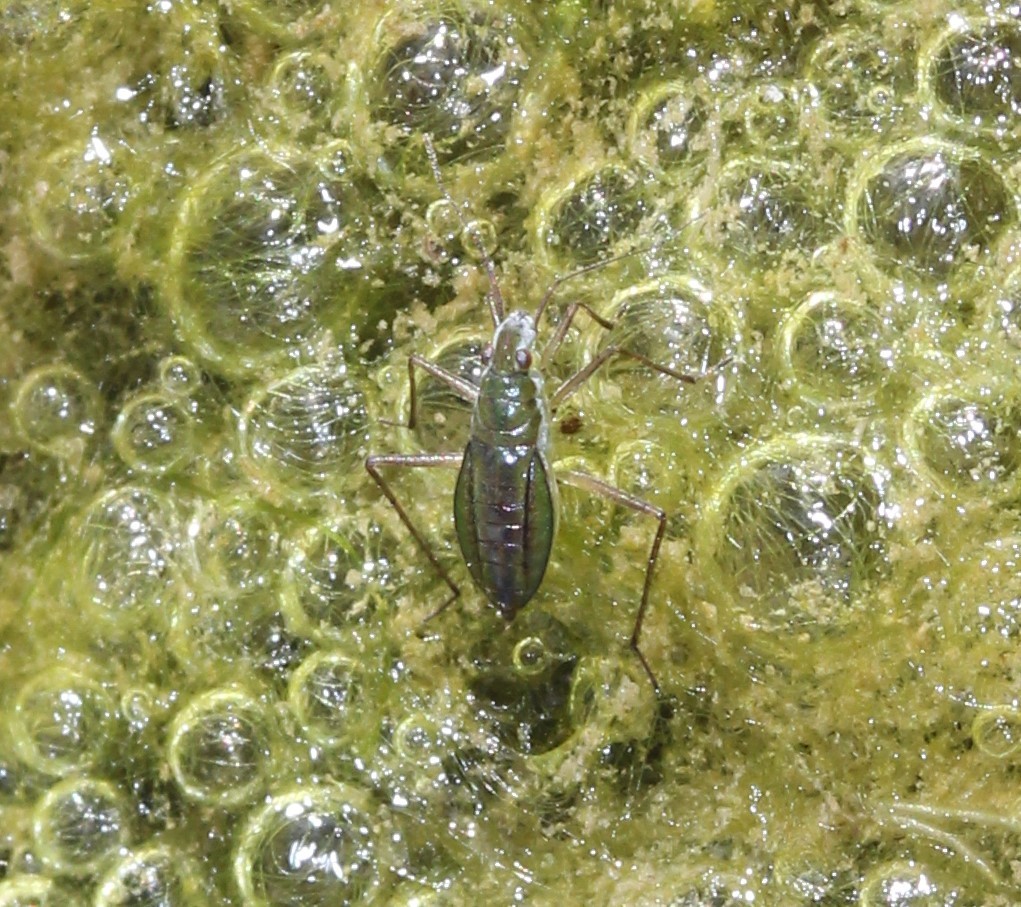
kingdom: Animalia
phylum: Arthropoda
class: Insecta
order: Hemiptera
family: Mesoveliidae
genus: Mesovelia
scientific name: Mesovelia
